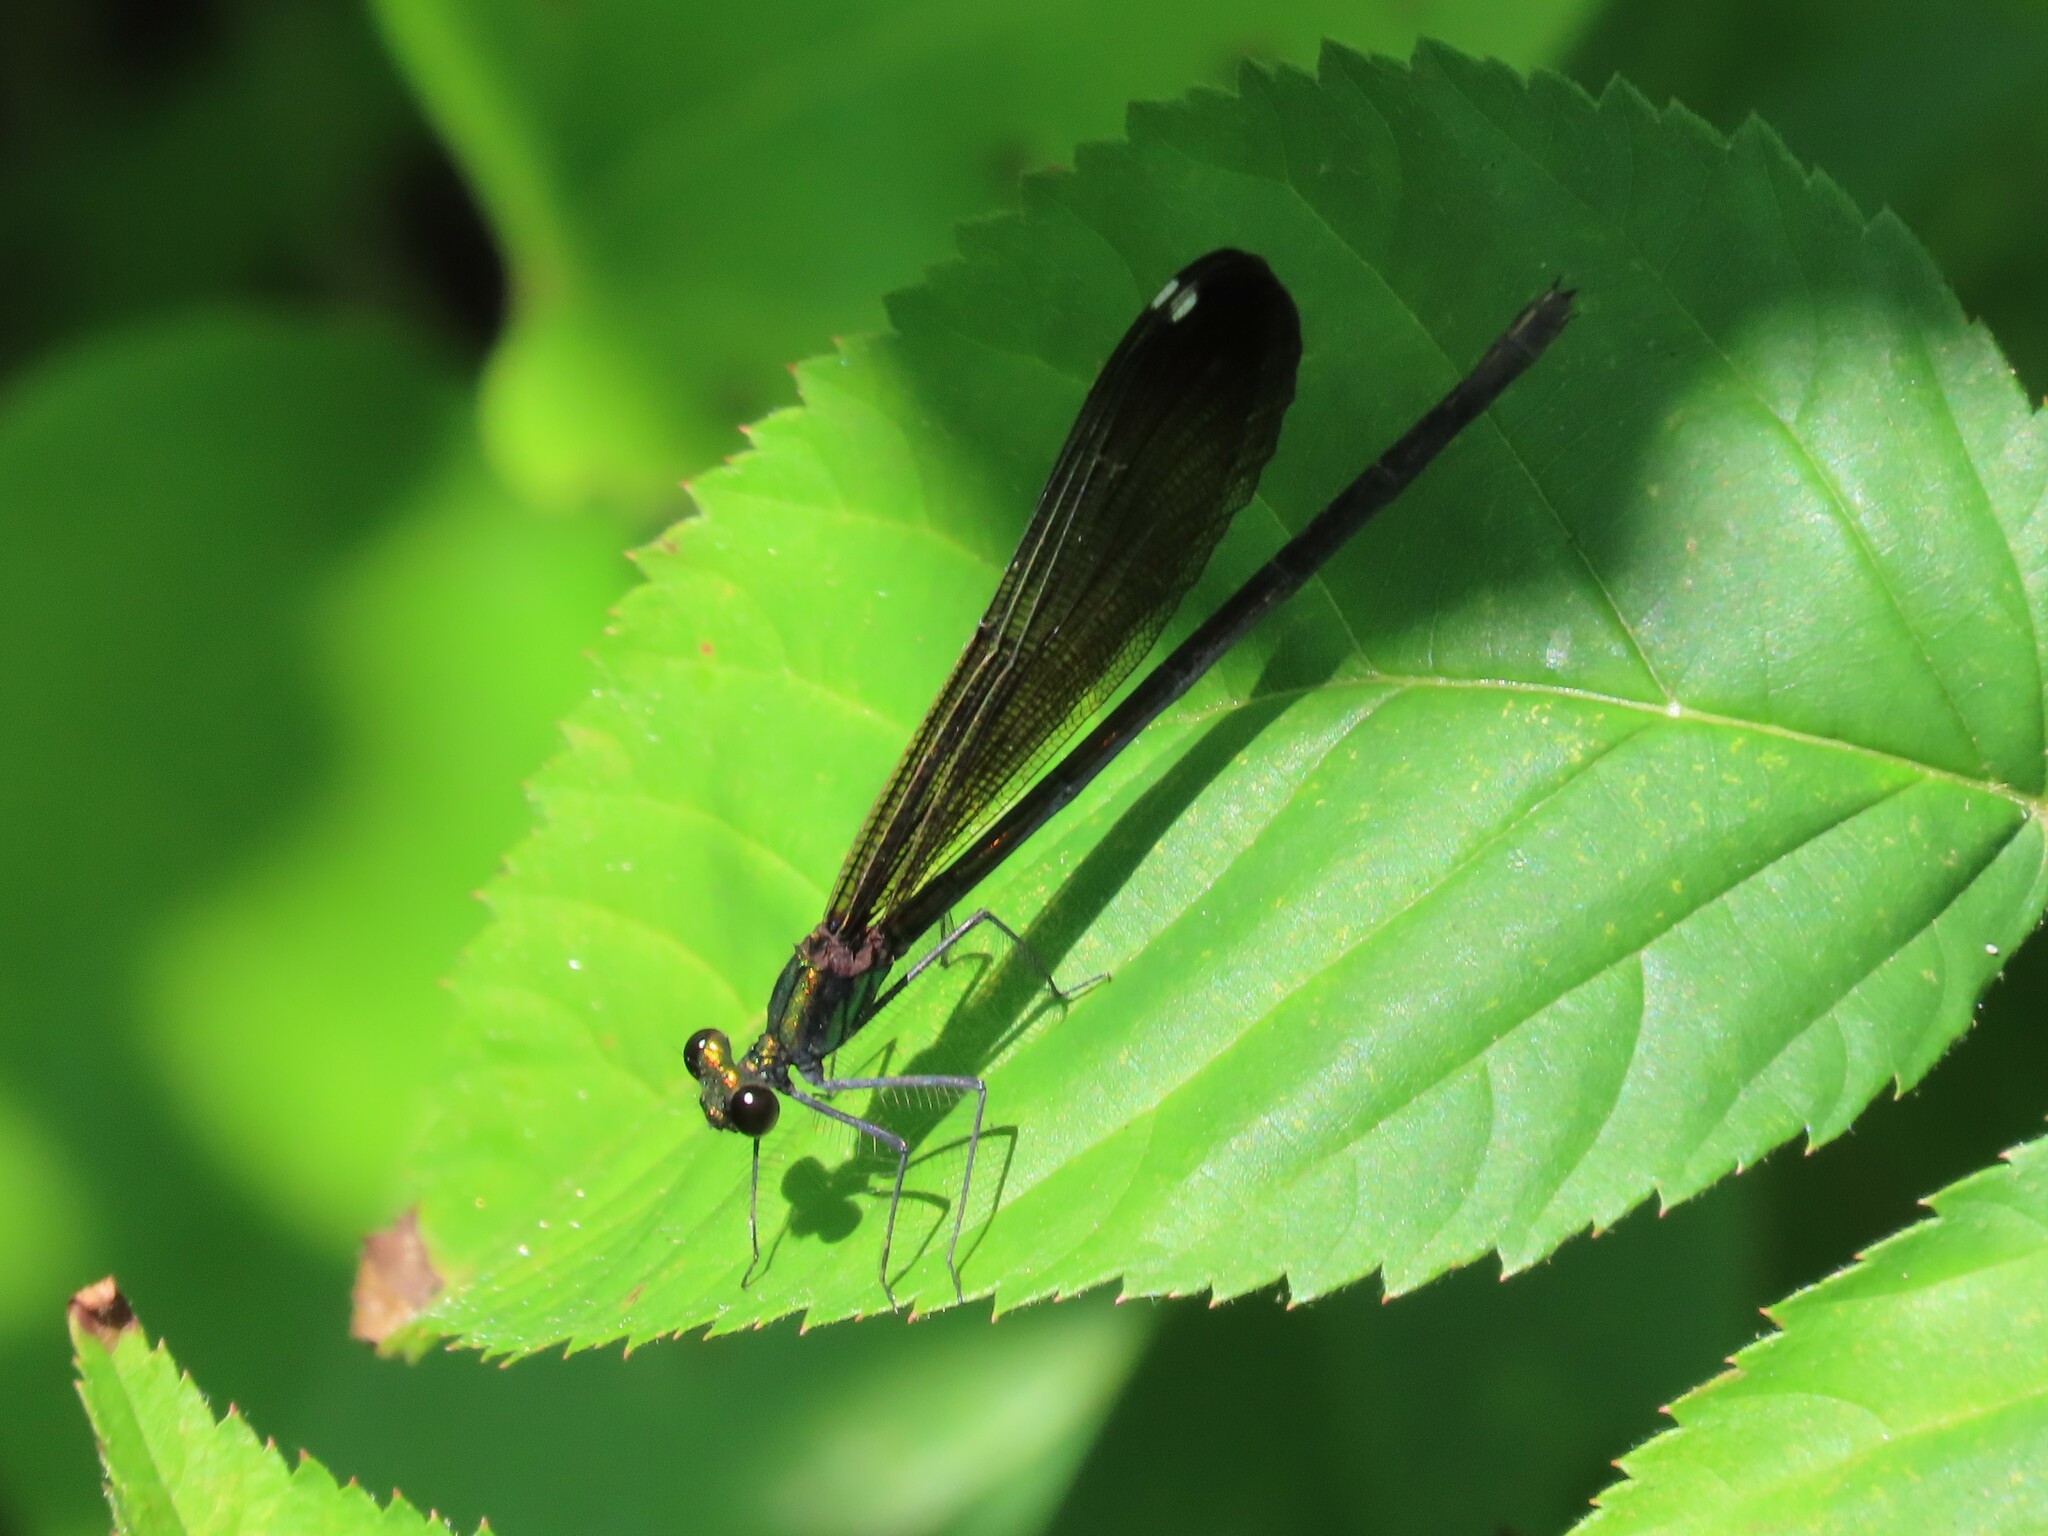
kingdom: Animalia
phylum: Arthropoda
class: Insecta
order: Odonata
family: Calopterygidae
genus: Calopteryx
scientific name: Calopteryx maculata
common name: Ebony jewelwing
